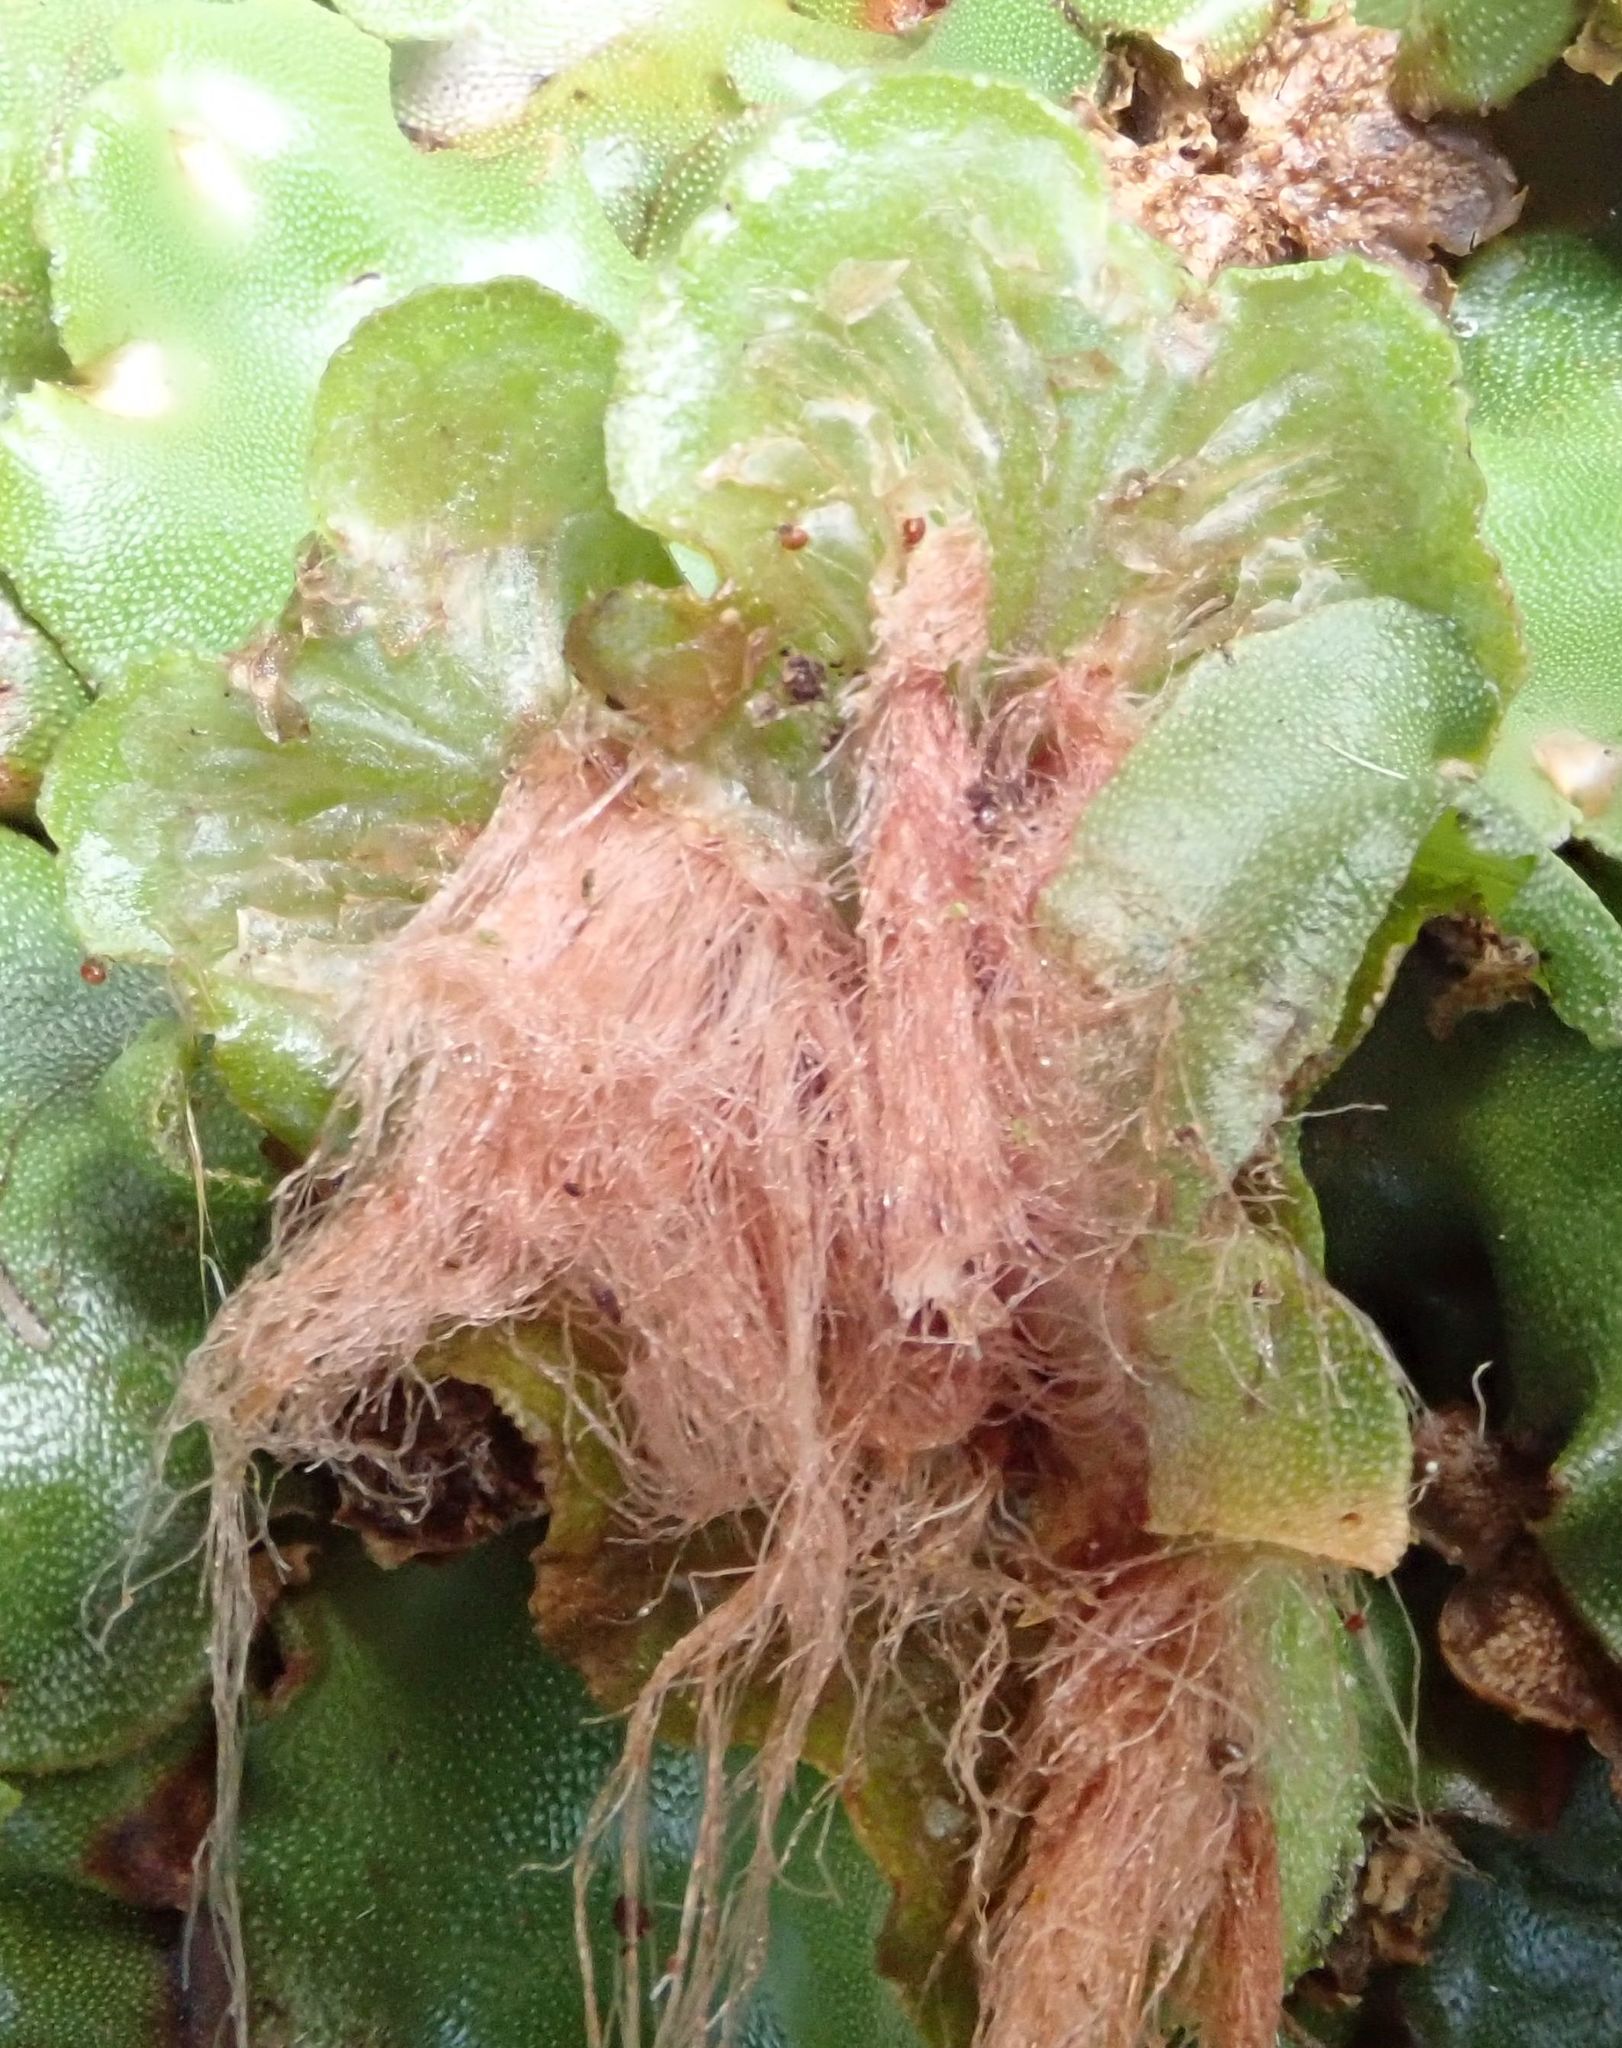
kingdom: Plantae
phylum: Marchantiophyta
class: Marchantiopsida
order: Marchantiales
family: Marchantiaceae
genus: Marchantia
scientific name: Marchantia berteroana
